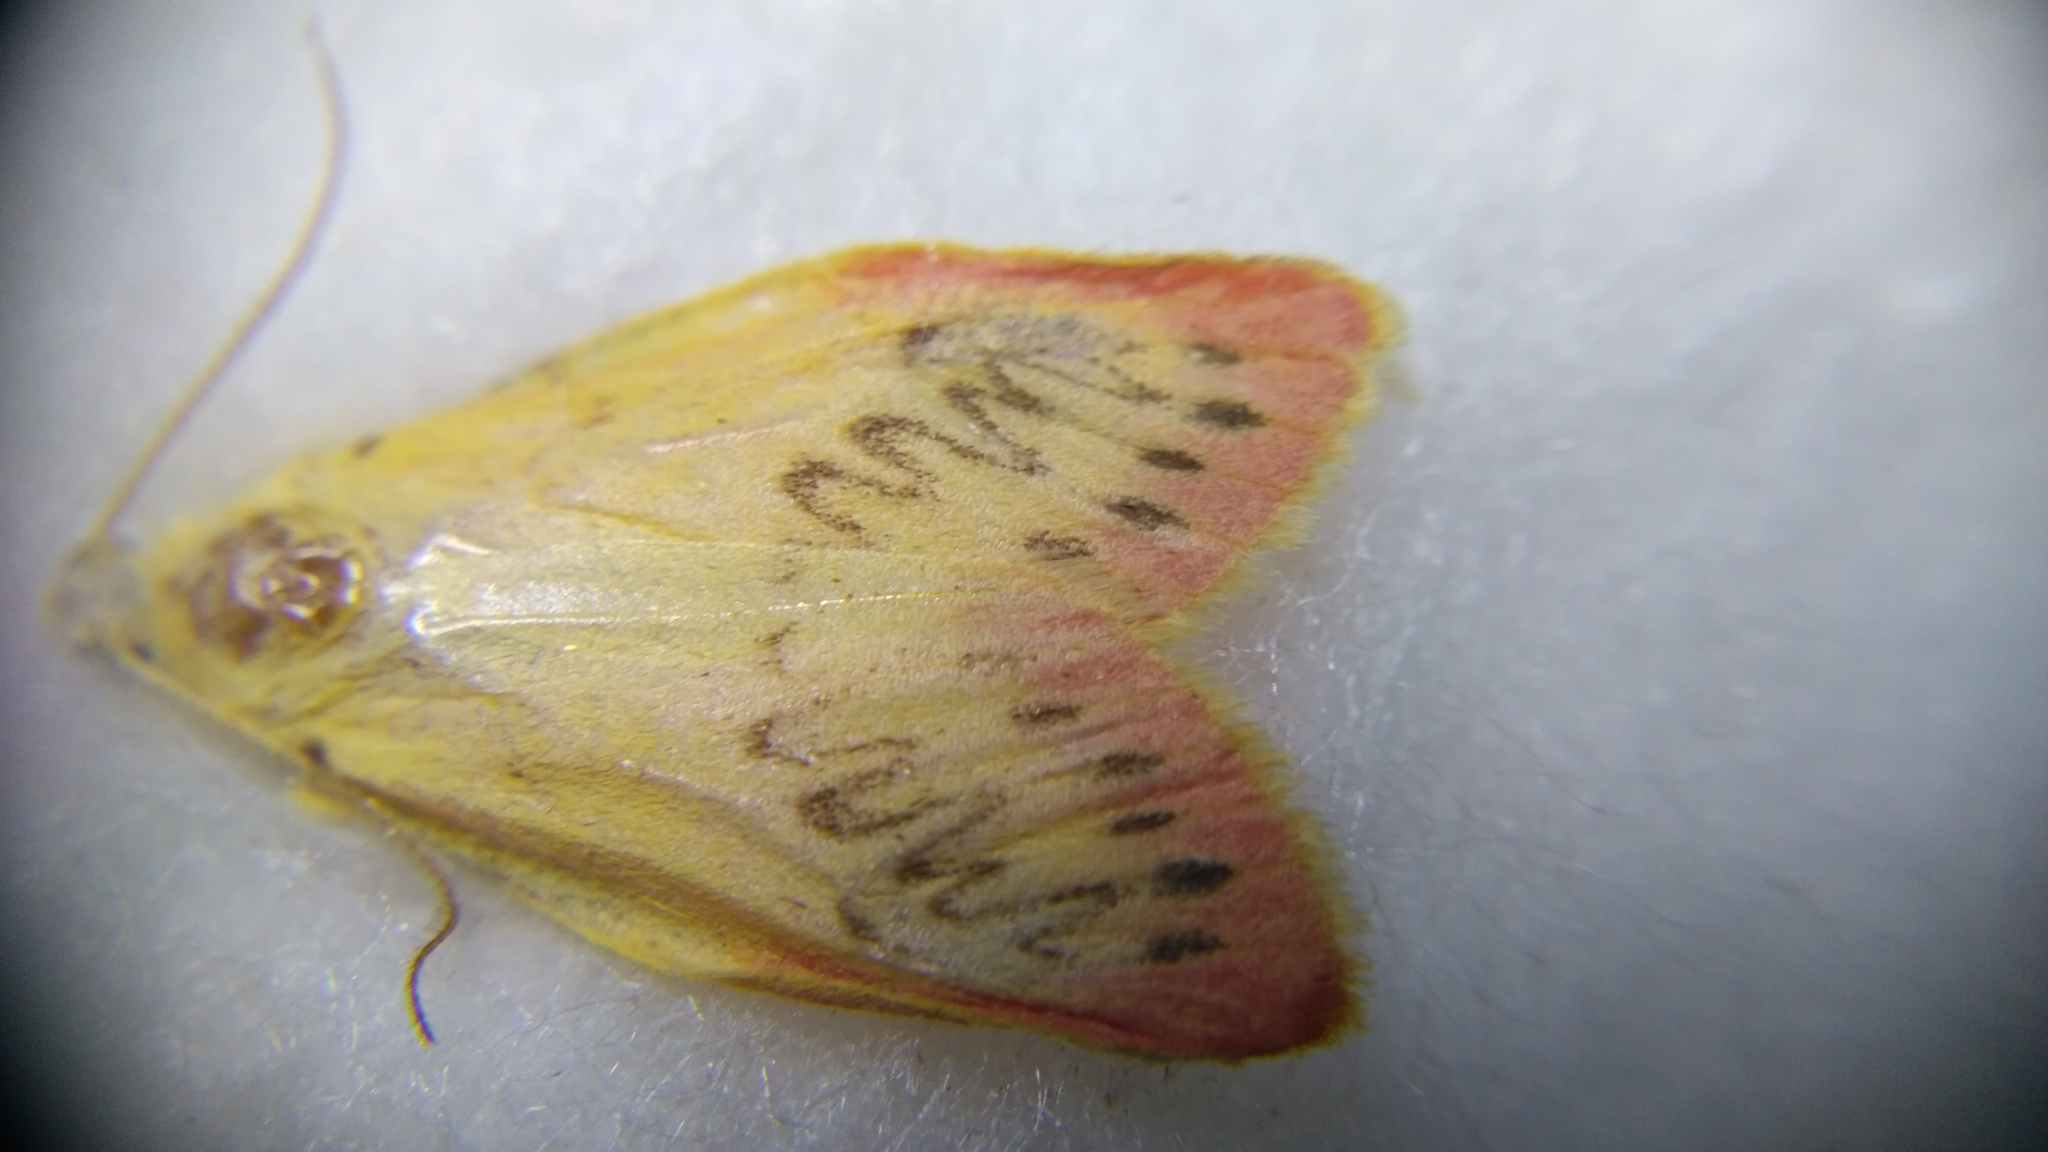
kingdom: Animalia
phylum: Arthropoda
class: Insecta
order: Lepidoptera
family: Erebidae
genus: Miltochrista
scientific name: Miltochrista miniata
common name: Rosy footman
